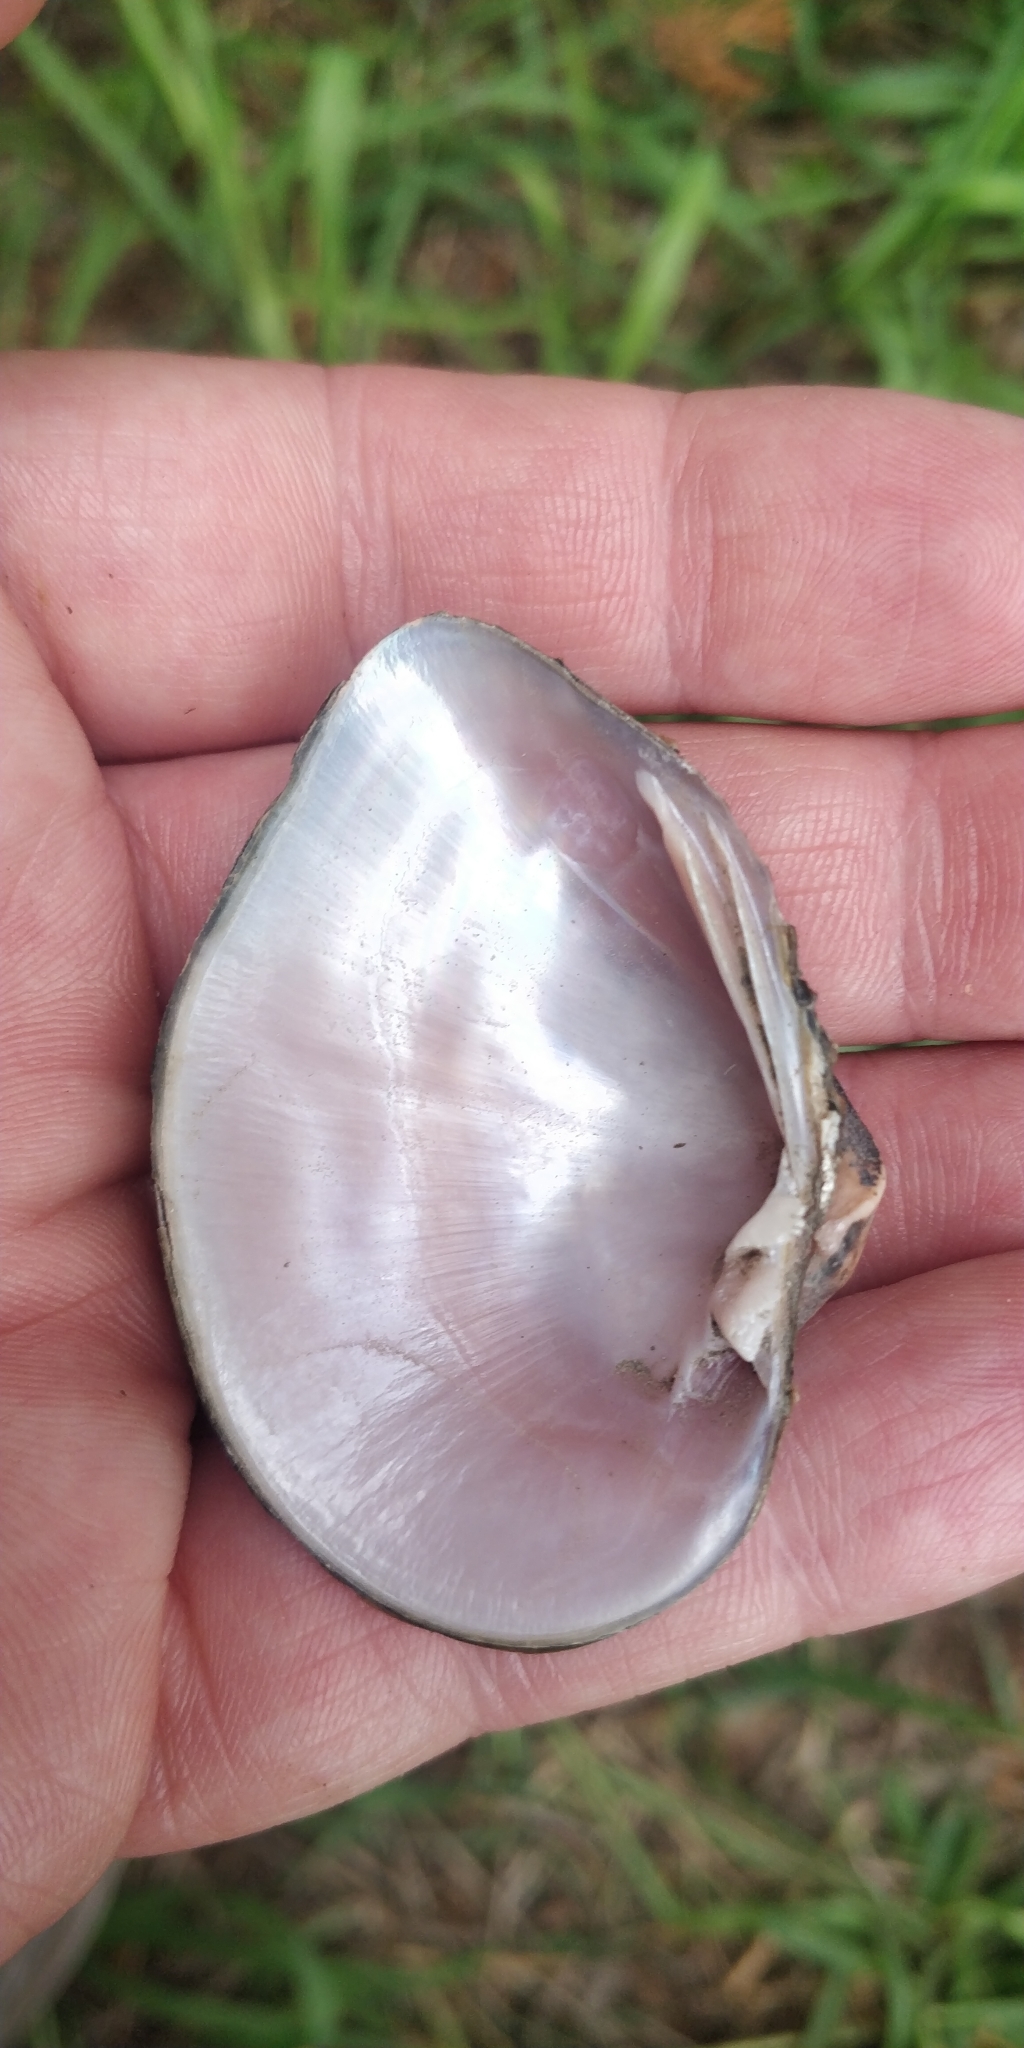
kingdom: Animalia
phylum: Mollusca
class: Bivalvia
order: Unionida
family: Unionidae
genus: Truncilla
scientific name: Truncilla truncata
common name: Deertoe
